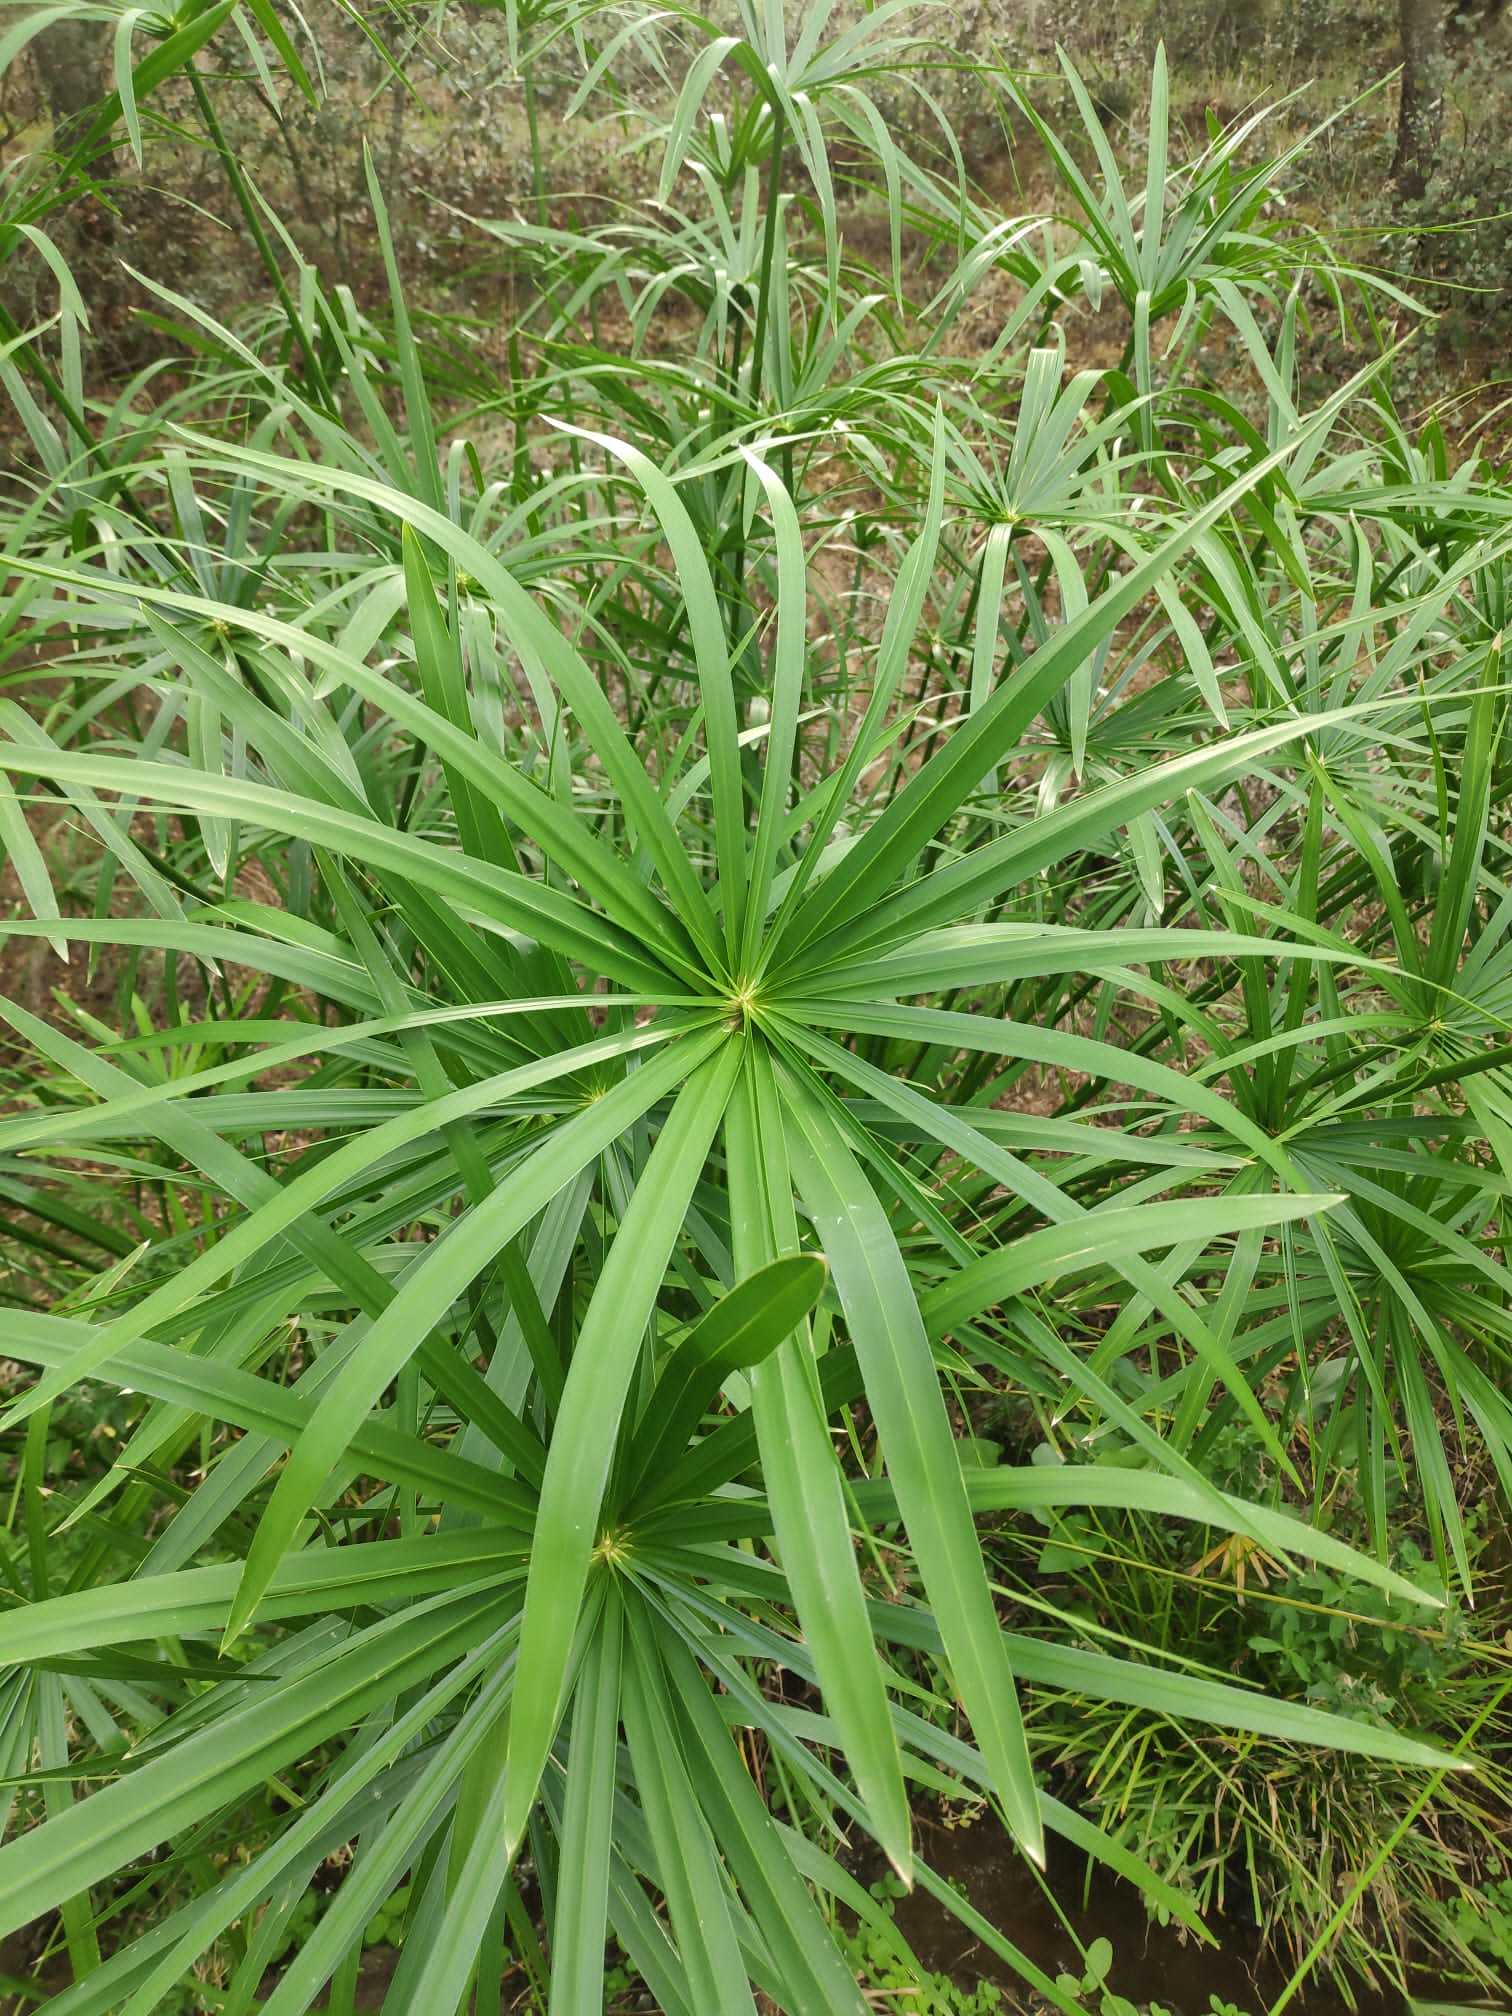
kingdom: Plantae
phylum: Tracheophyta
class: Liliopsida
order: Poales
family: Cyperaceae
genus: Cyperus
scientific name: Cyperus alternifolius
